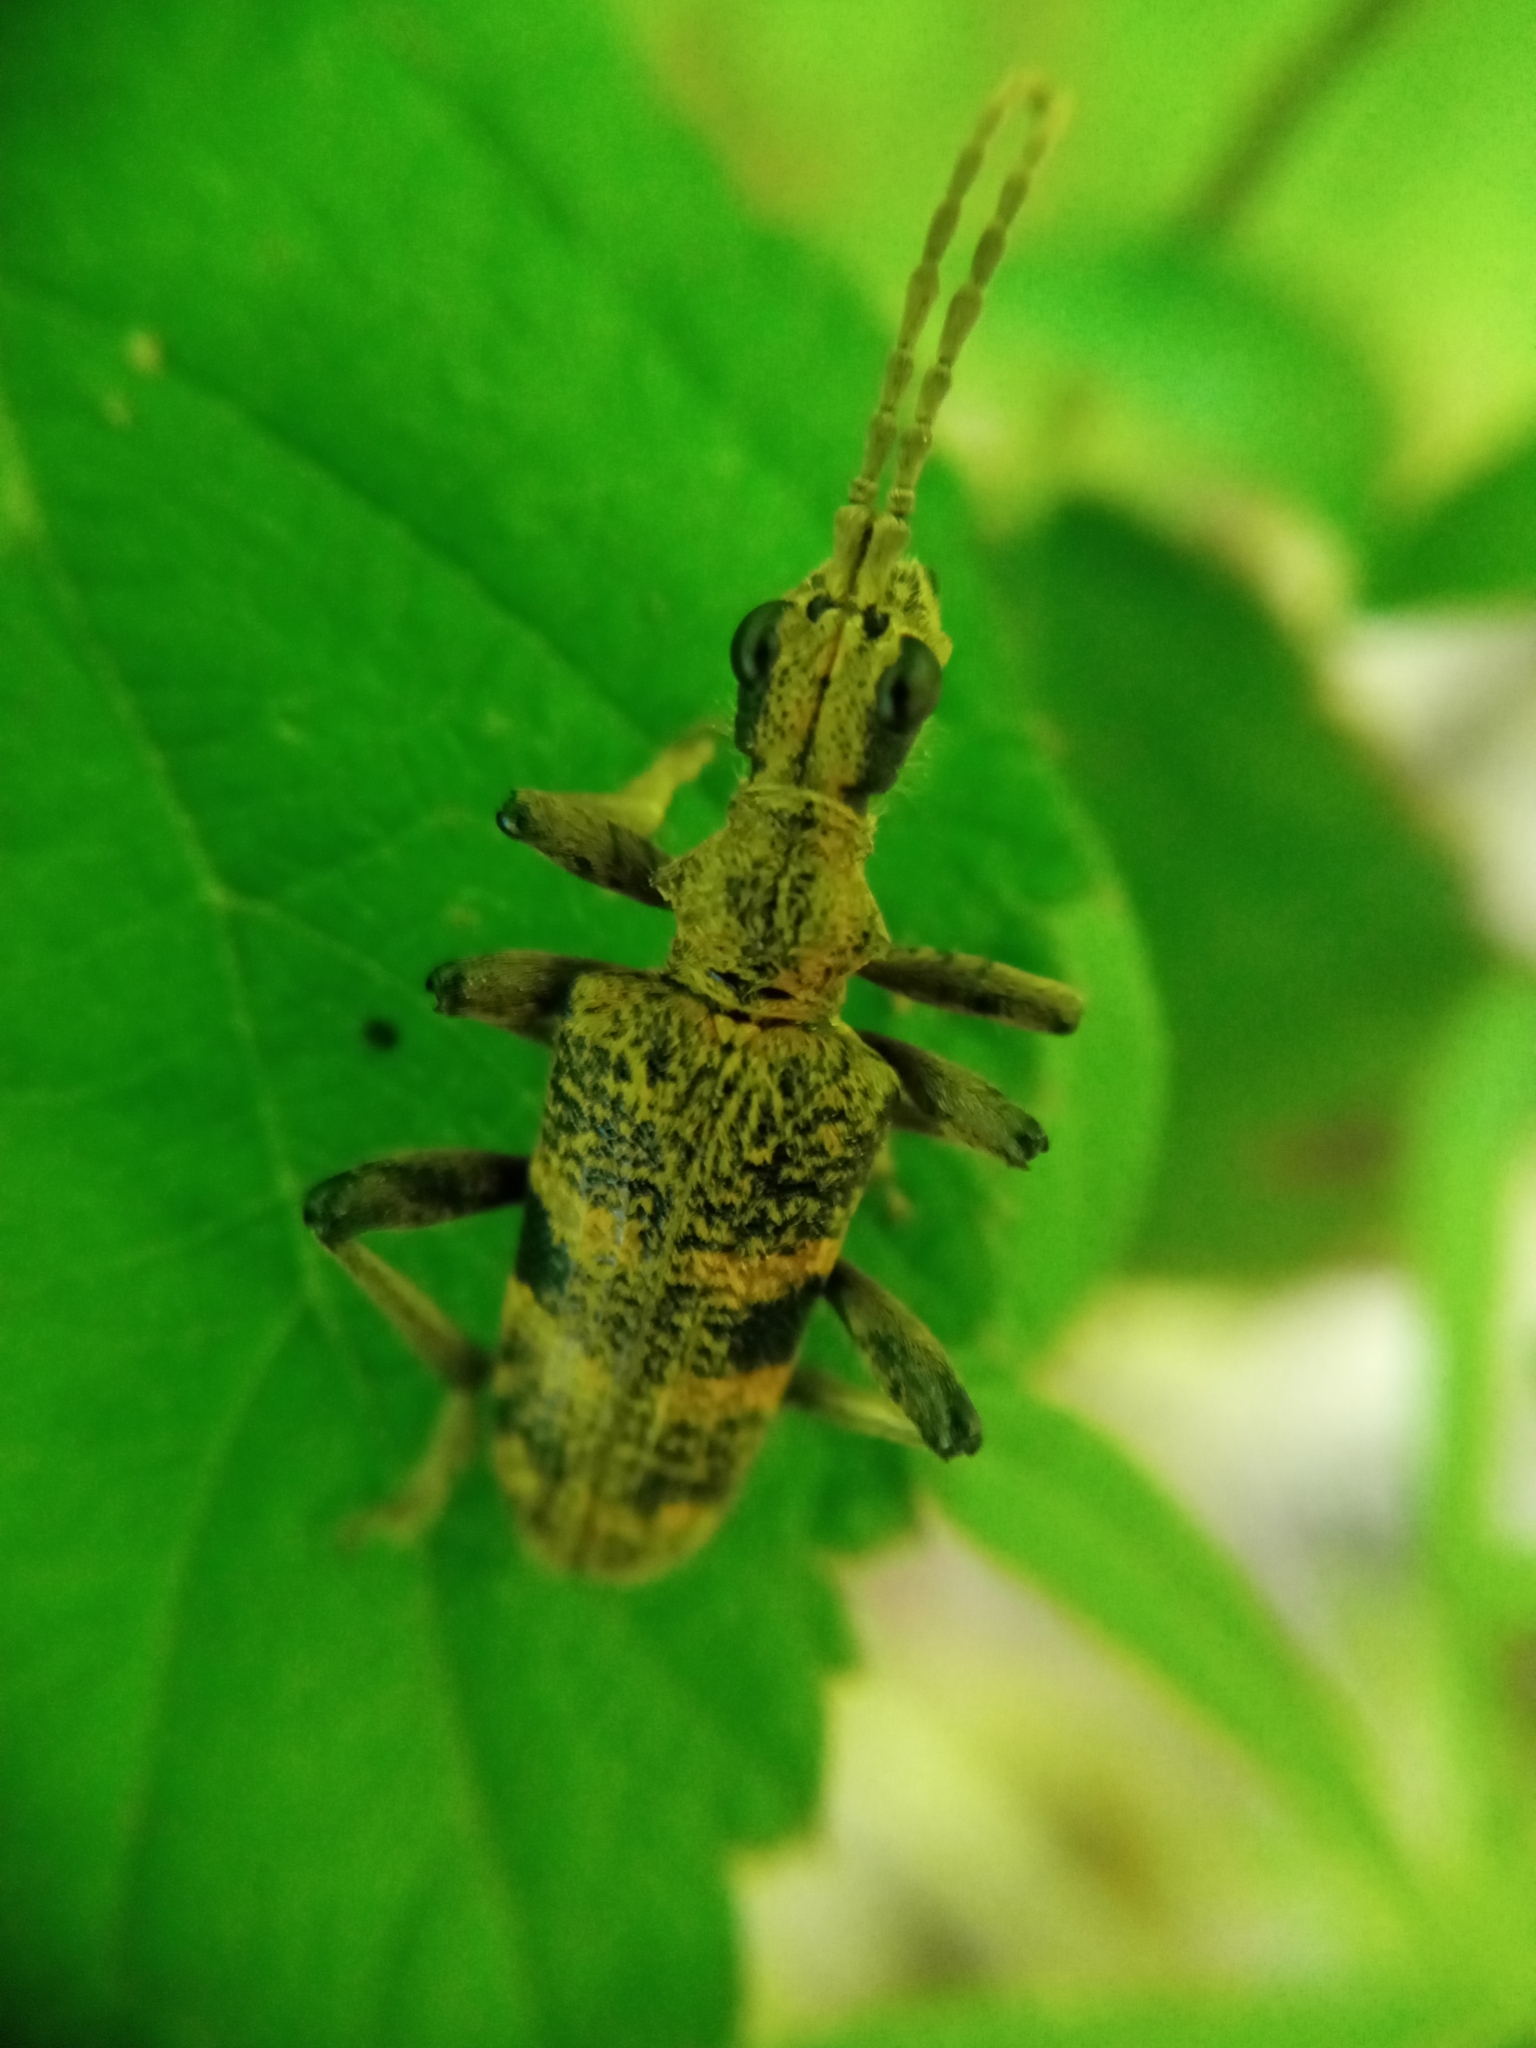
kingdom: Animalia
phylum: Arthropoda
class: Insecta
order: Coleoptera
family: Cerambycidae
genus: Rhagium
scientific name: Rhagium mordax
